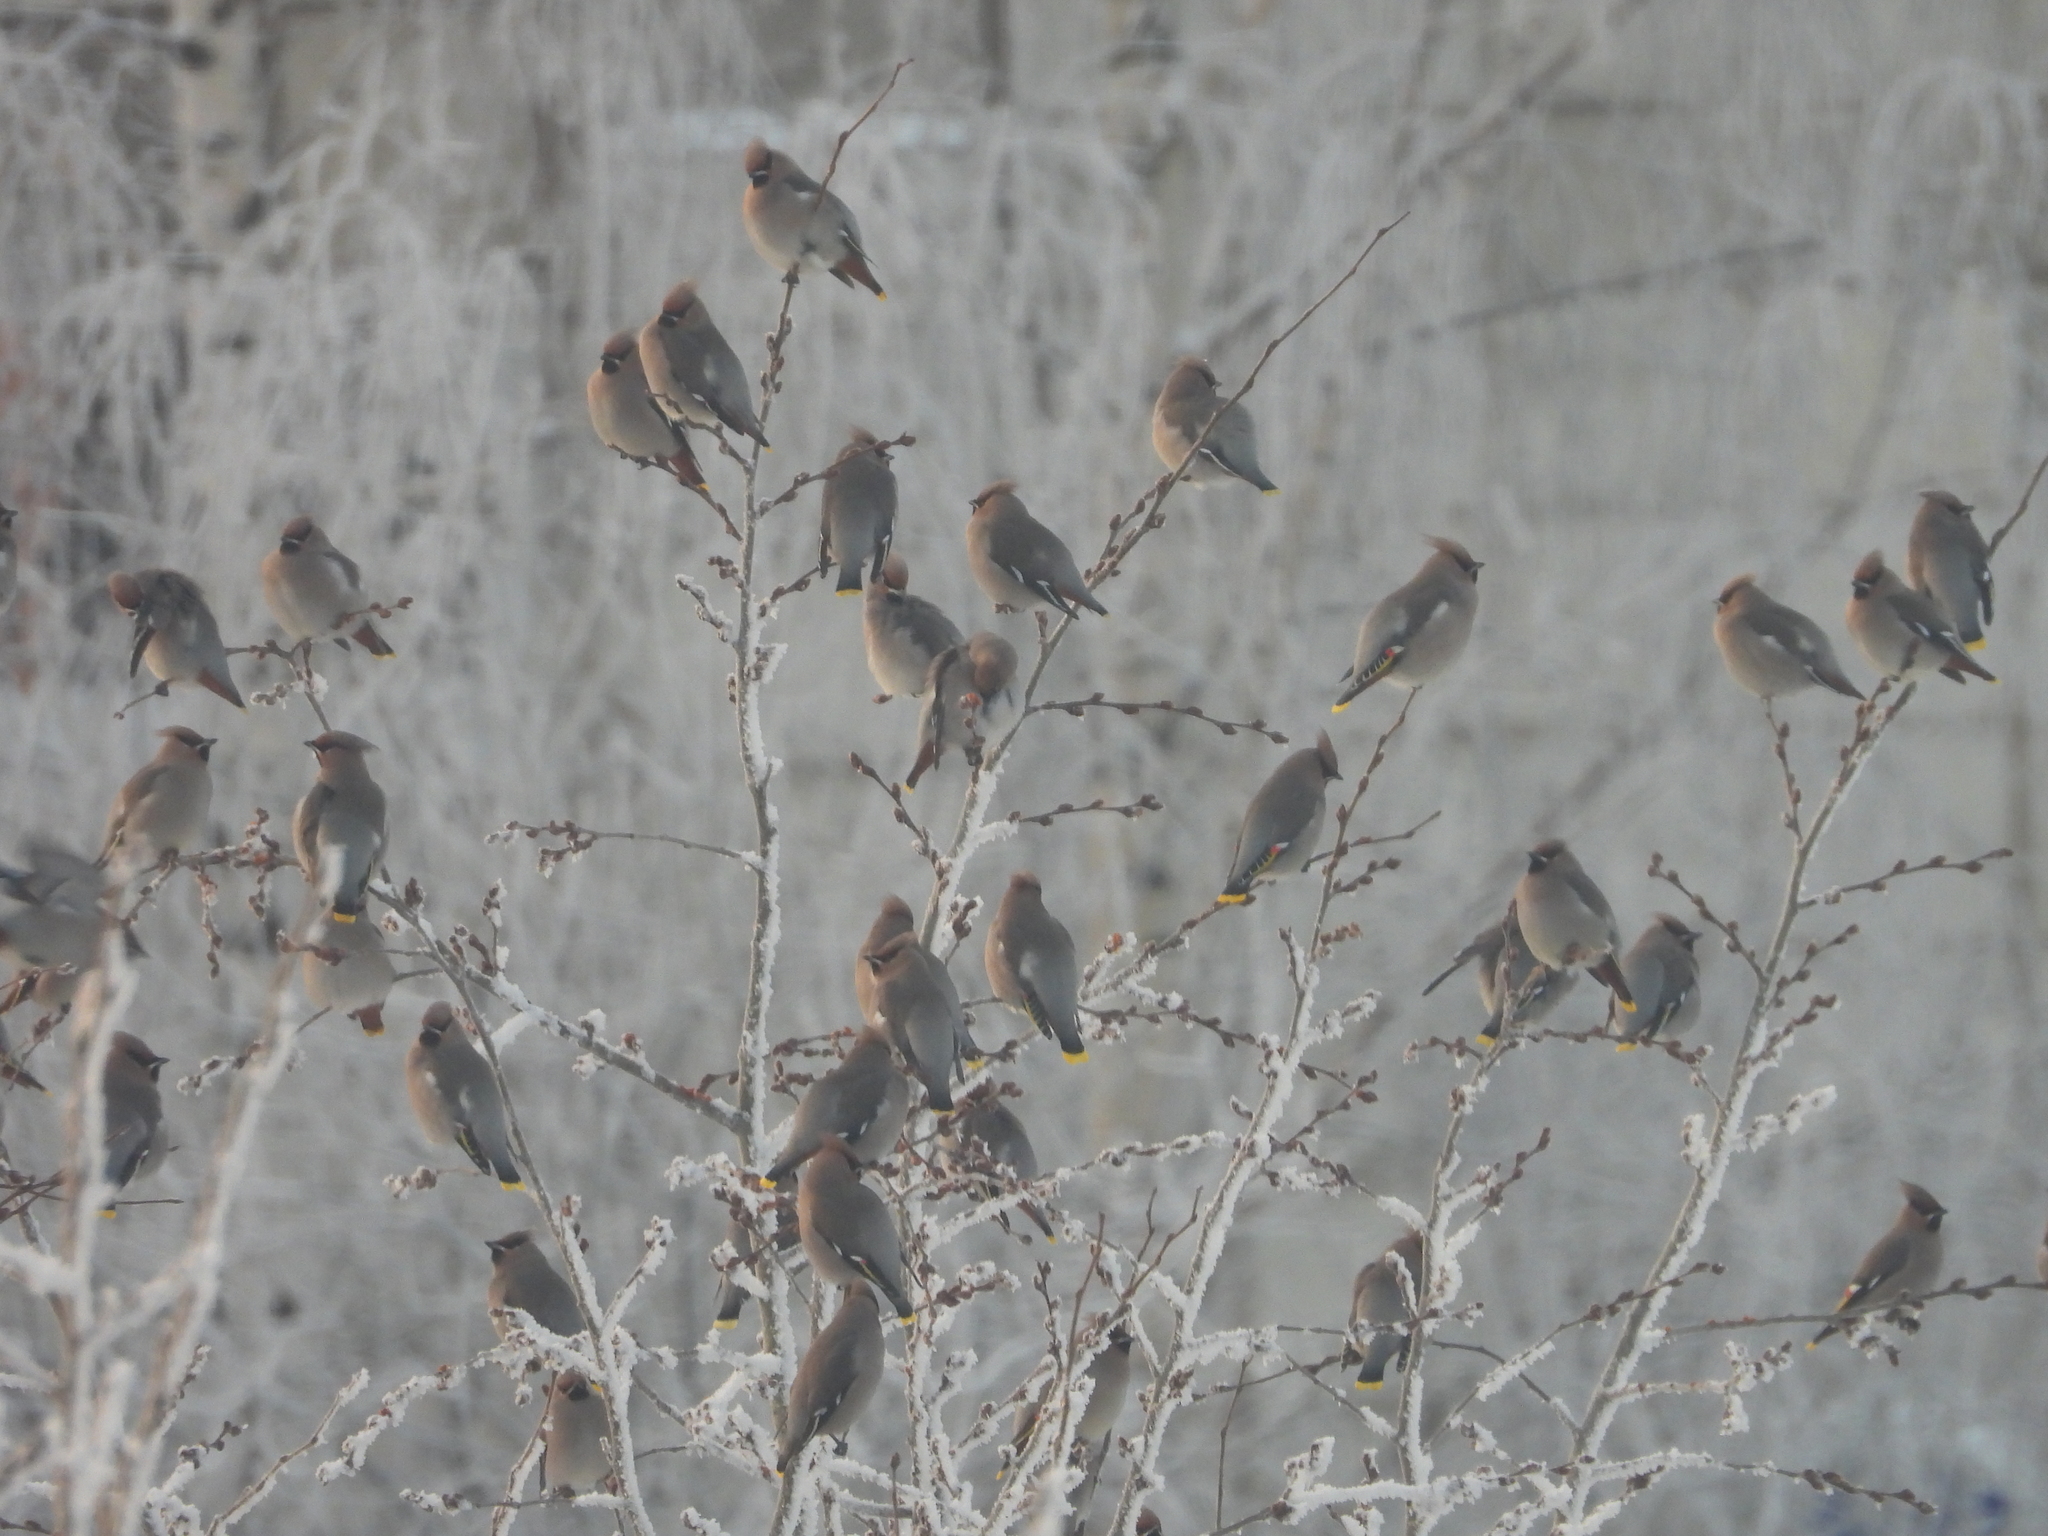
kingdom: Animalia
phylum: Chordata
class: Aves
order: Passeriformes
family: Bombycillidae
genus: Bombycilla
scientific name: Bombycilla garrulus
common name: Bohemian waxwing
